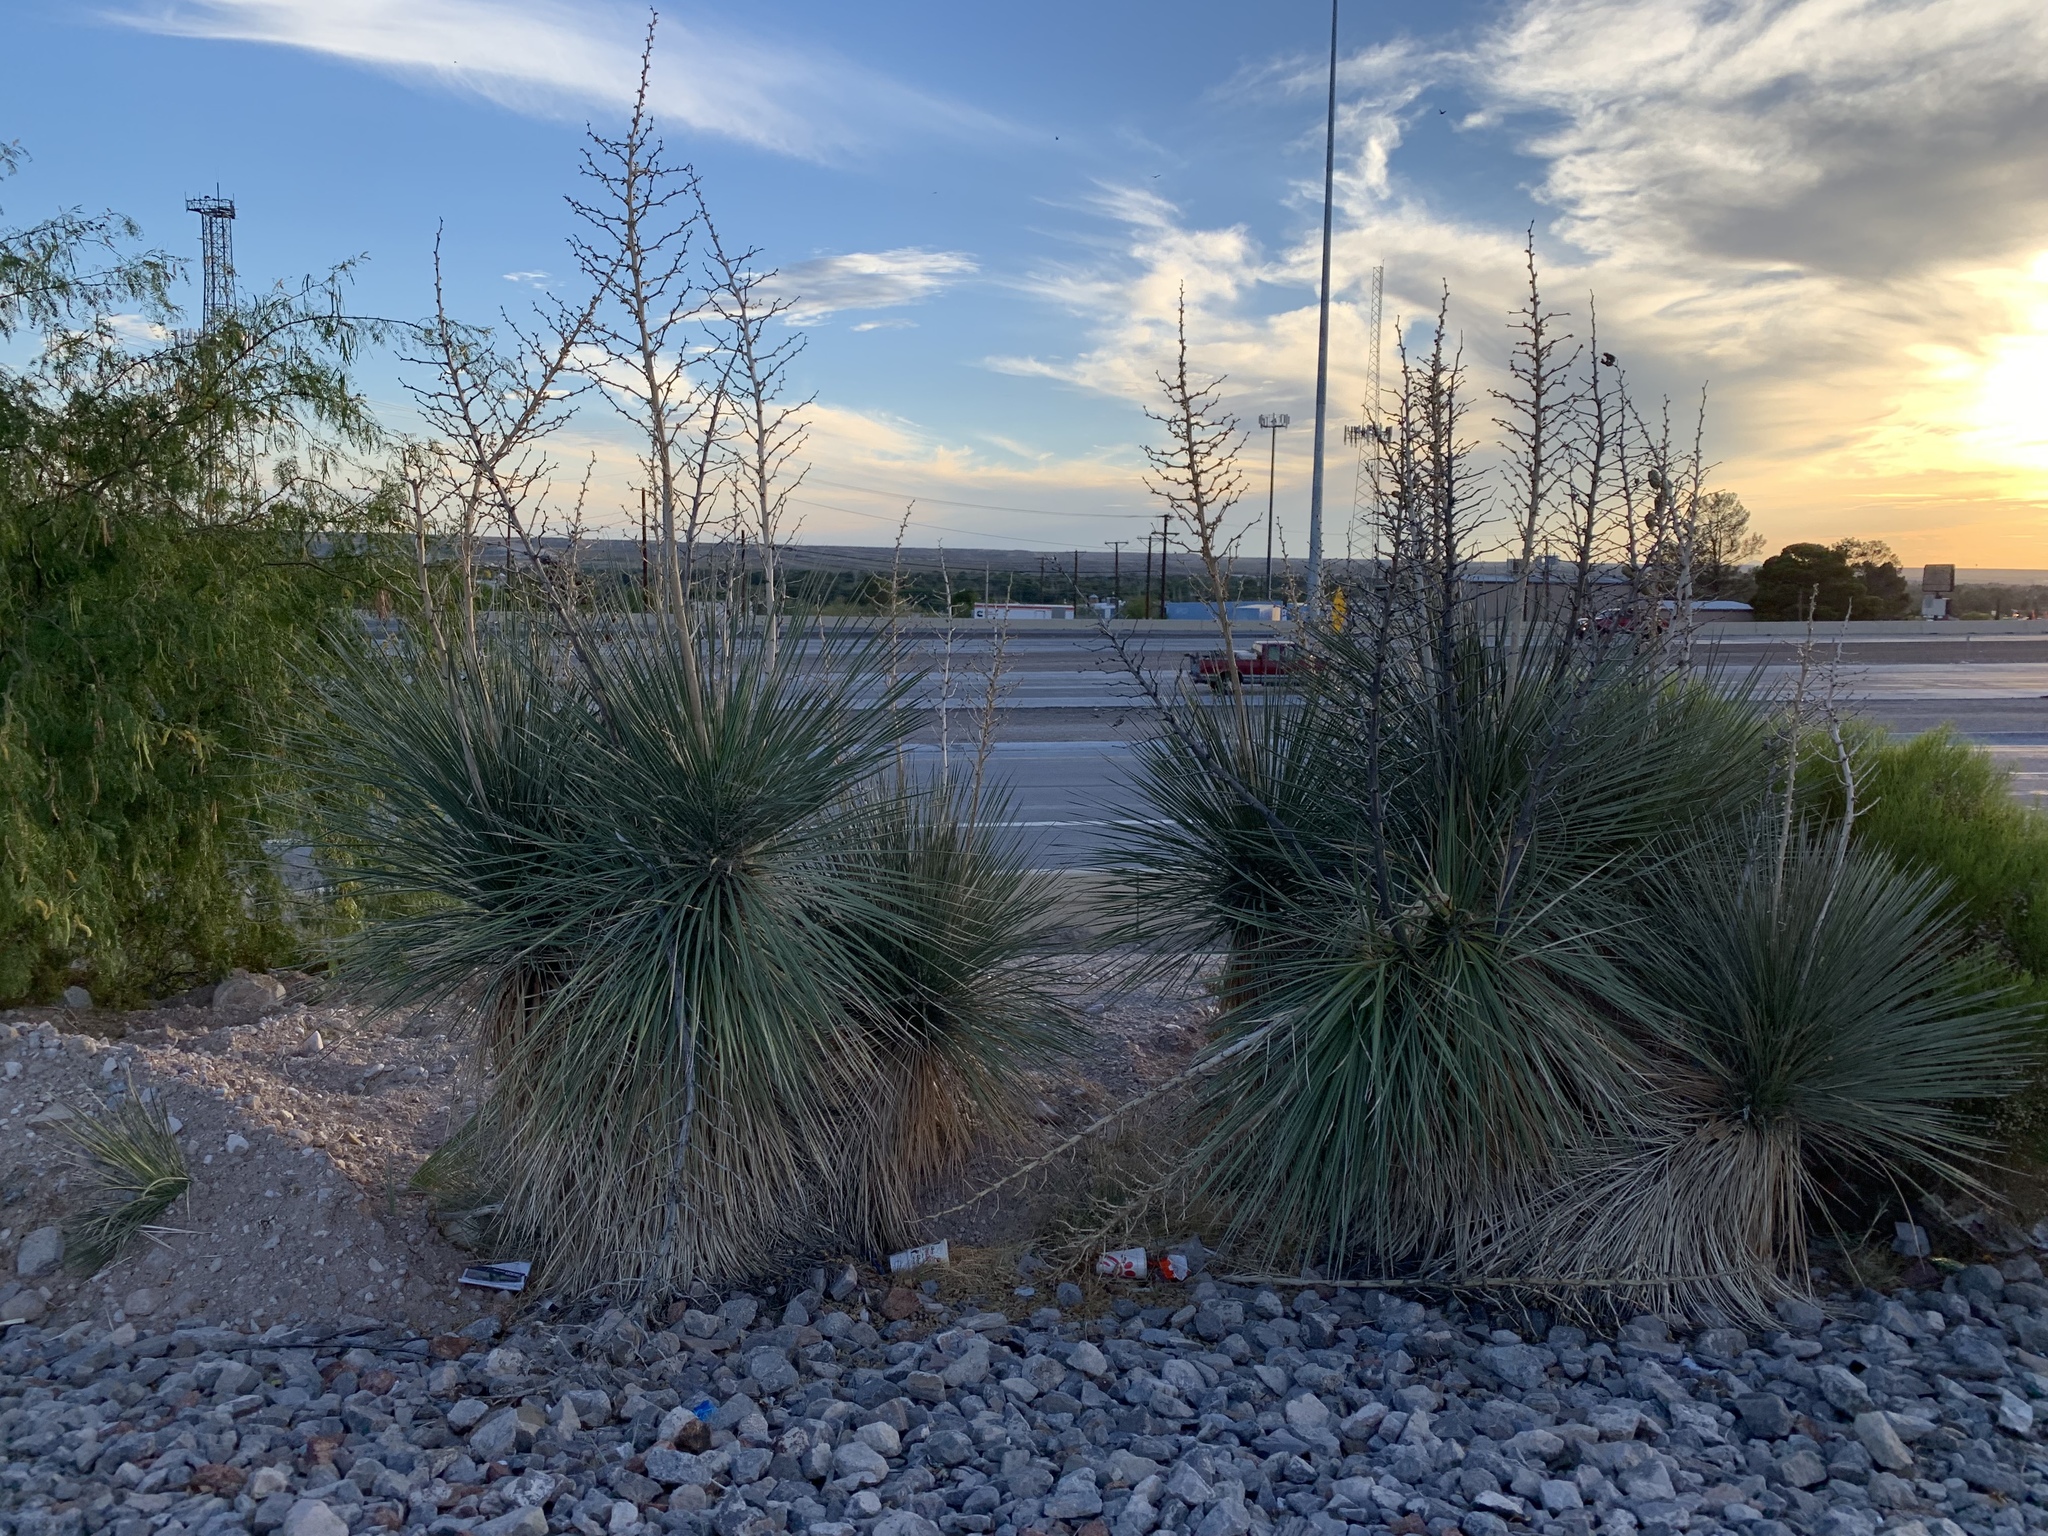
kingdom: Plantae
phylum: Tracheophyta
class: Liliopsida
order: Asparagales
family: Asparagaceae
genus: Yucca
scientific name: Yucca elata
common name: Palmella
